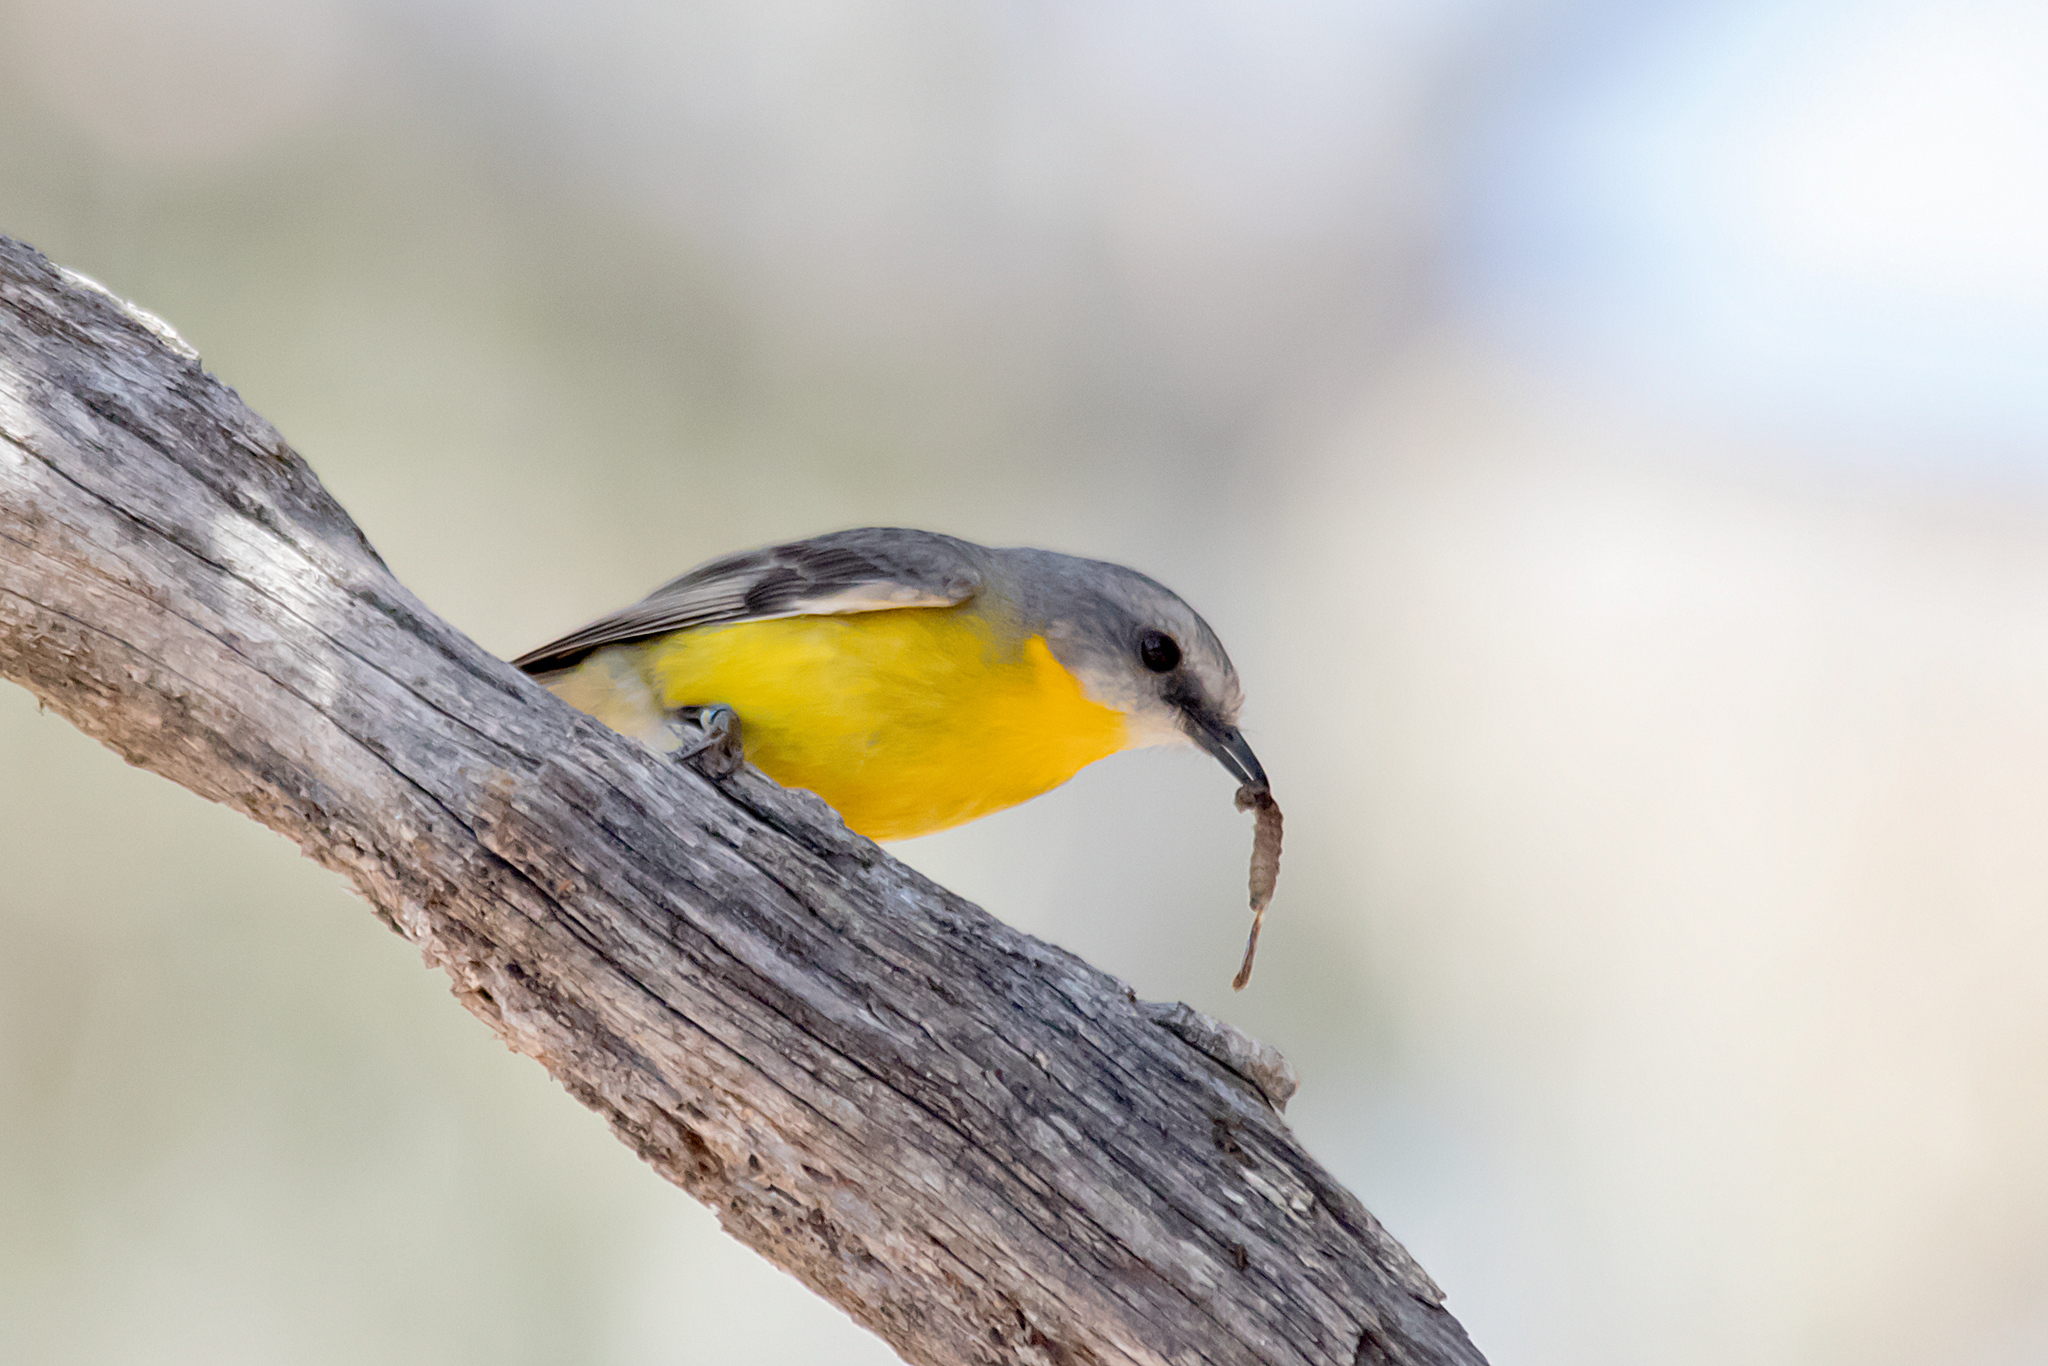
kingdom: Animalia
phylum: Chordata
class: Aves
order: Passeriformes
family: Petroicidae
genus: Eopsaltria
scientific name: Eopsaltria australis
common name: Eastern yellow robin
